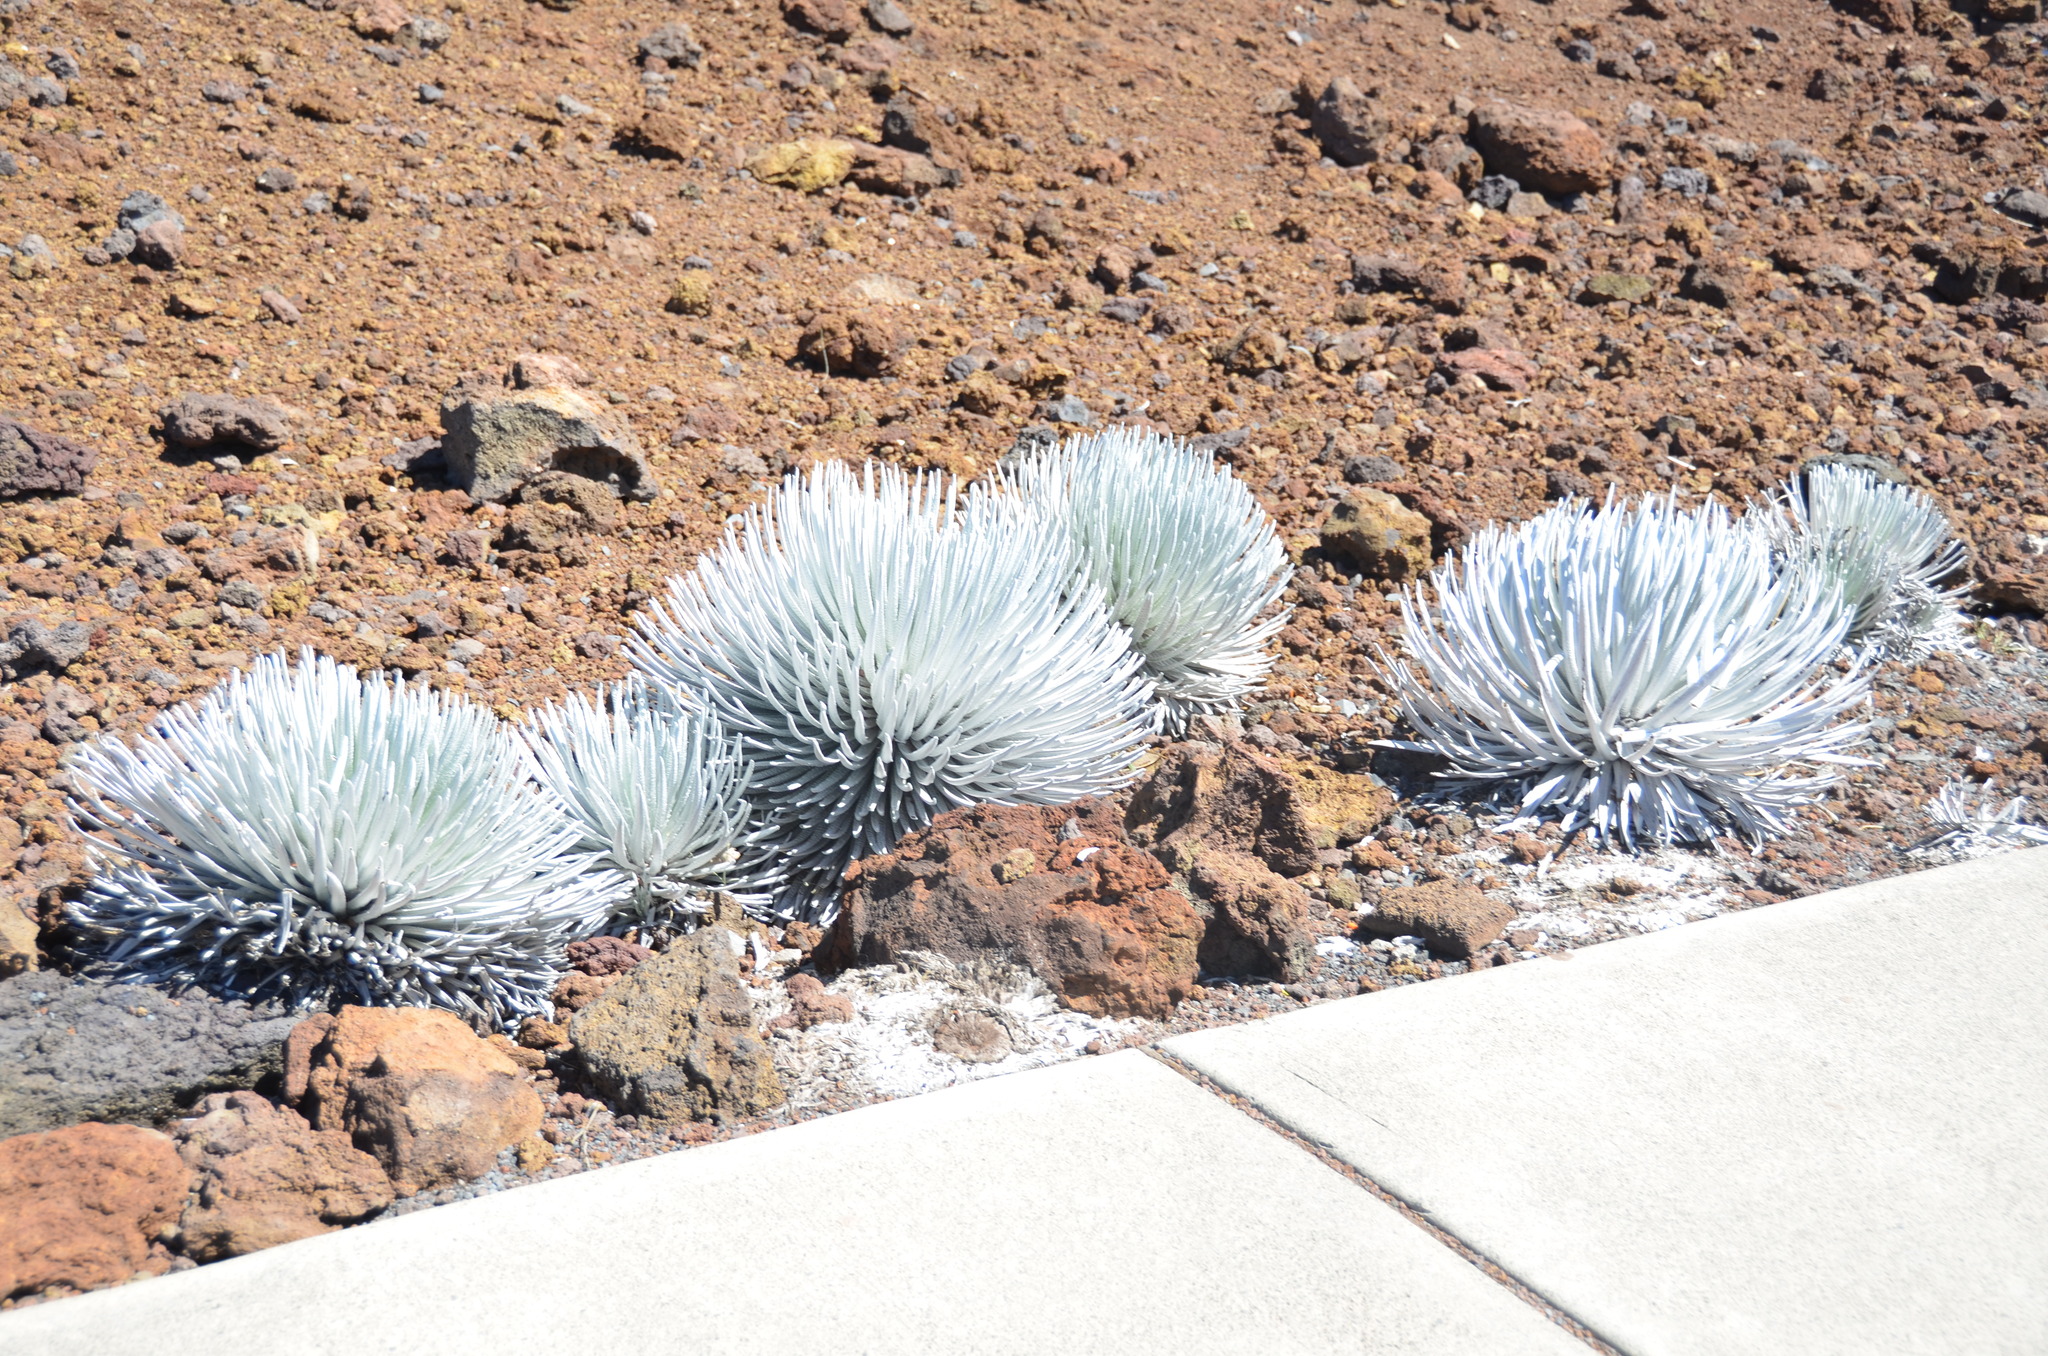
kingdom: Plantae
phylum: Tracheophyta
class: Magnoliopsida
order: Asterales
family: Asteraceae
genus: Argyroxiphium
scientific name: Argyroxiphium sandwicense
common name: Silversword
